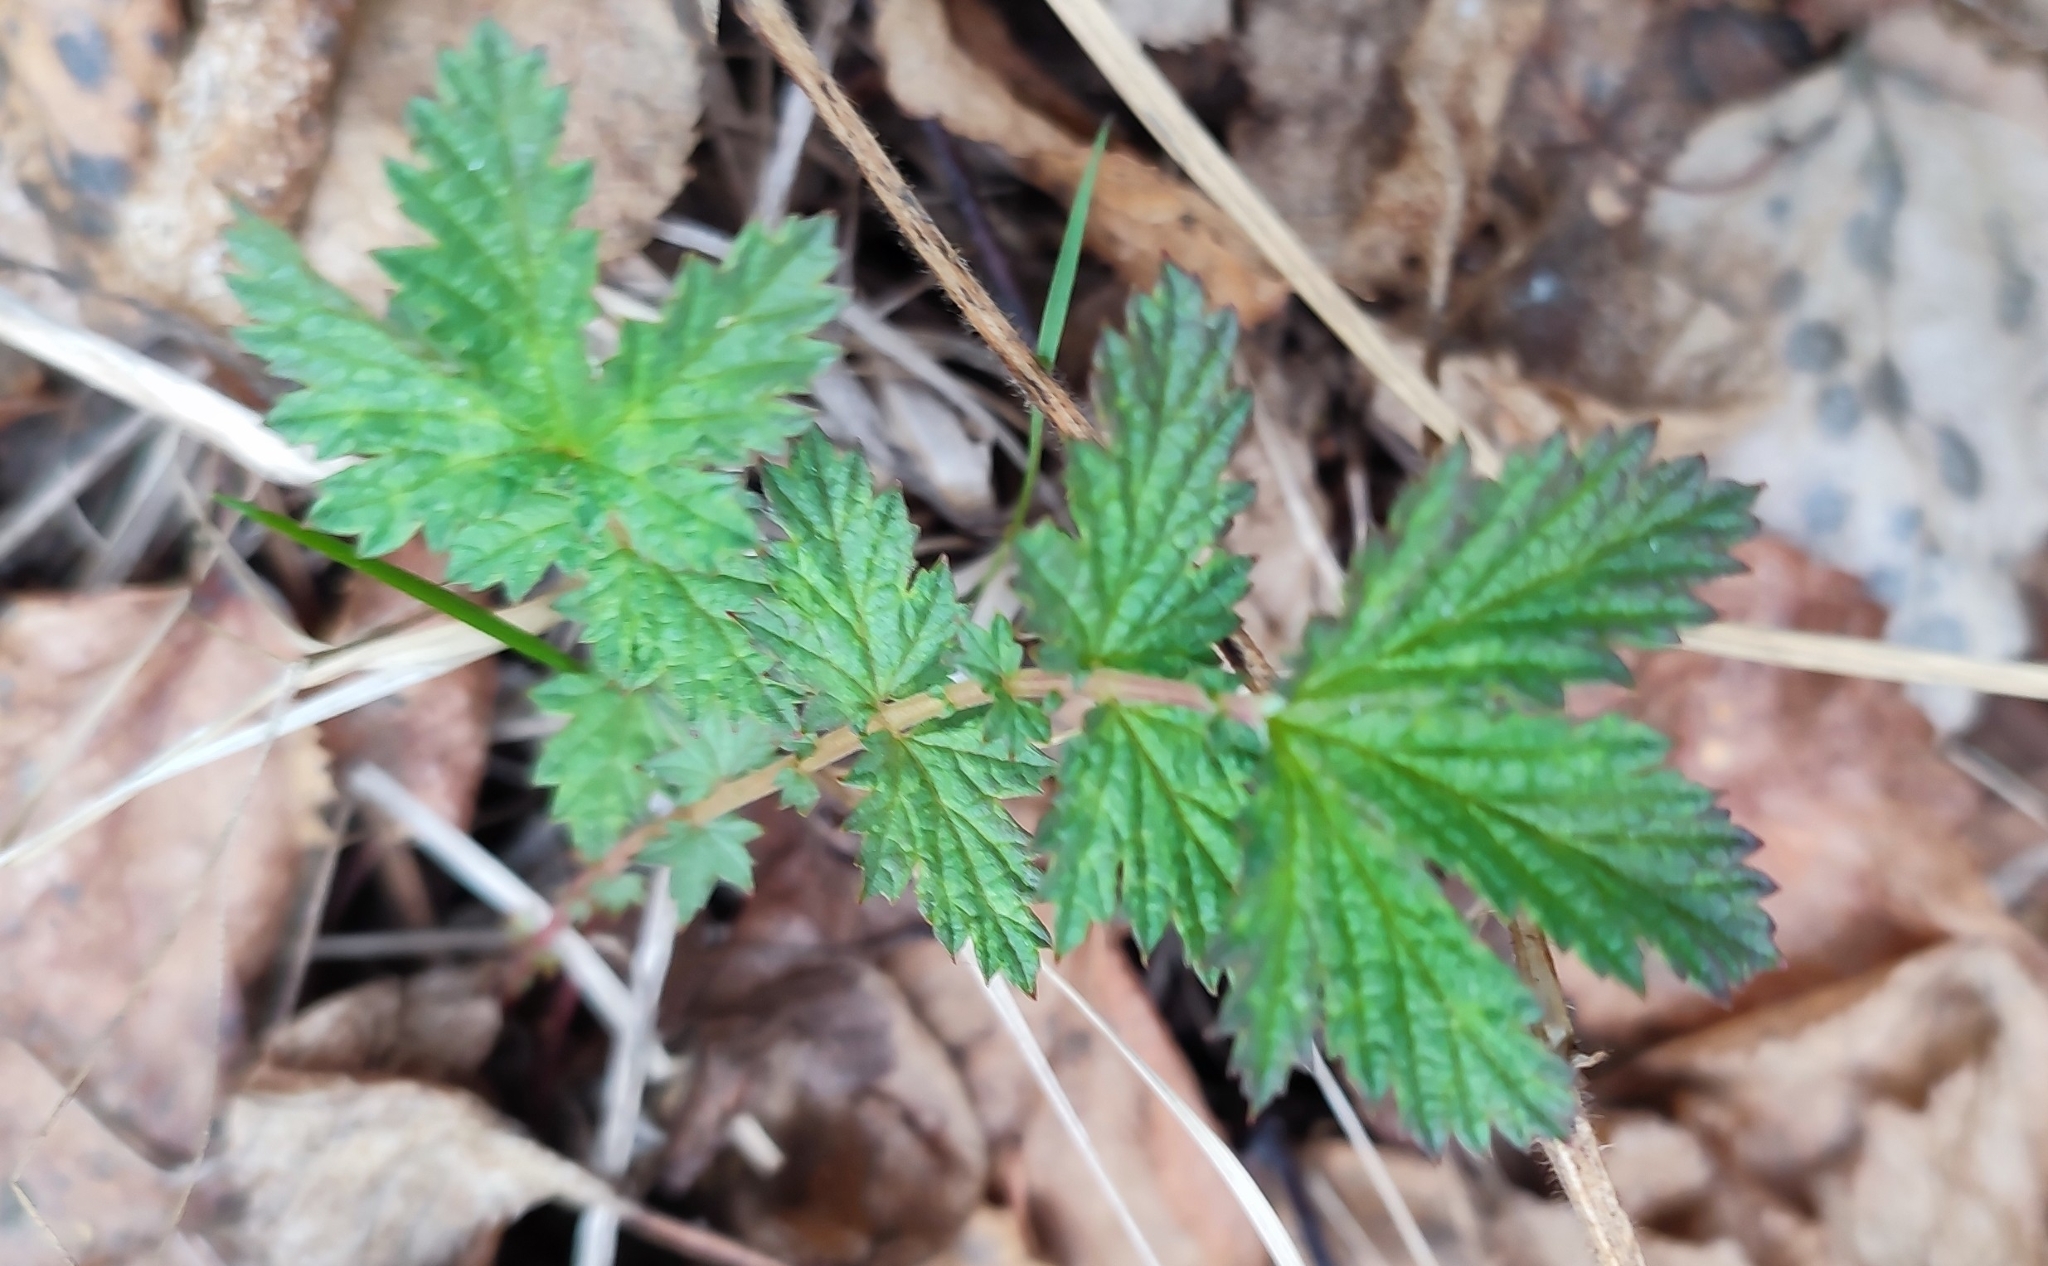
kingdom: Plantae
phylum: Tracheophyta
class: Magnoliopsida
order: Rosales
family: Rosaceae
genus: Filipendula
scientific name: Filipendula ulmaria
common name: Meadowsweet
